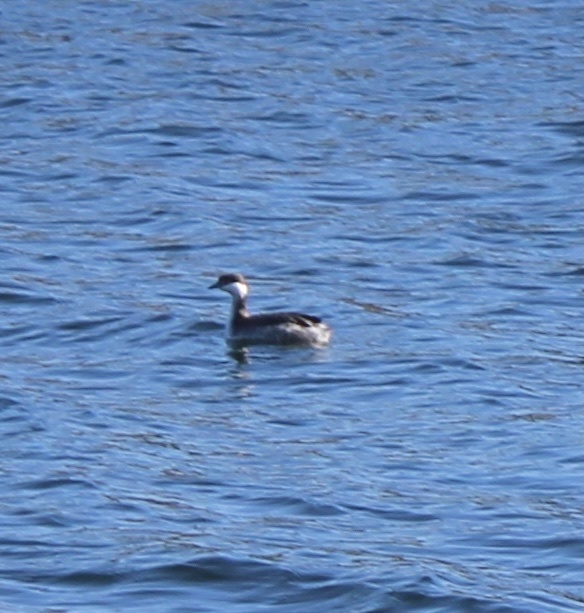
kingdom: Animalia
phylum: Chordata
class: Aves
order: Podicipediformes
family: Podicipedidae
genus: Podiceps
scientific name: Podiceps auritus
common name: Horned grebe
